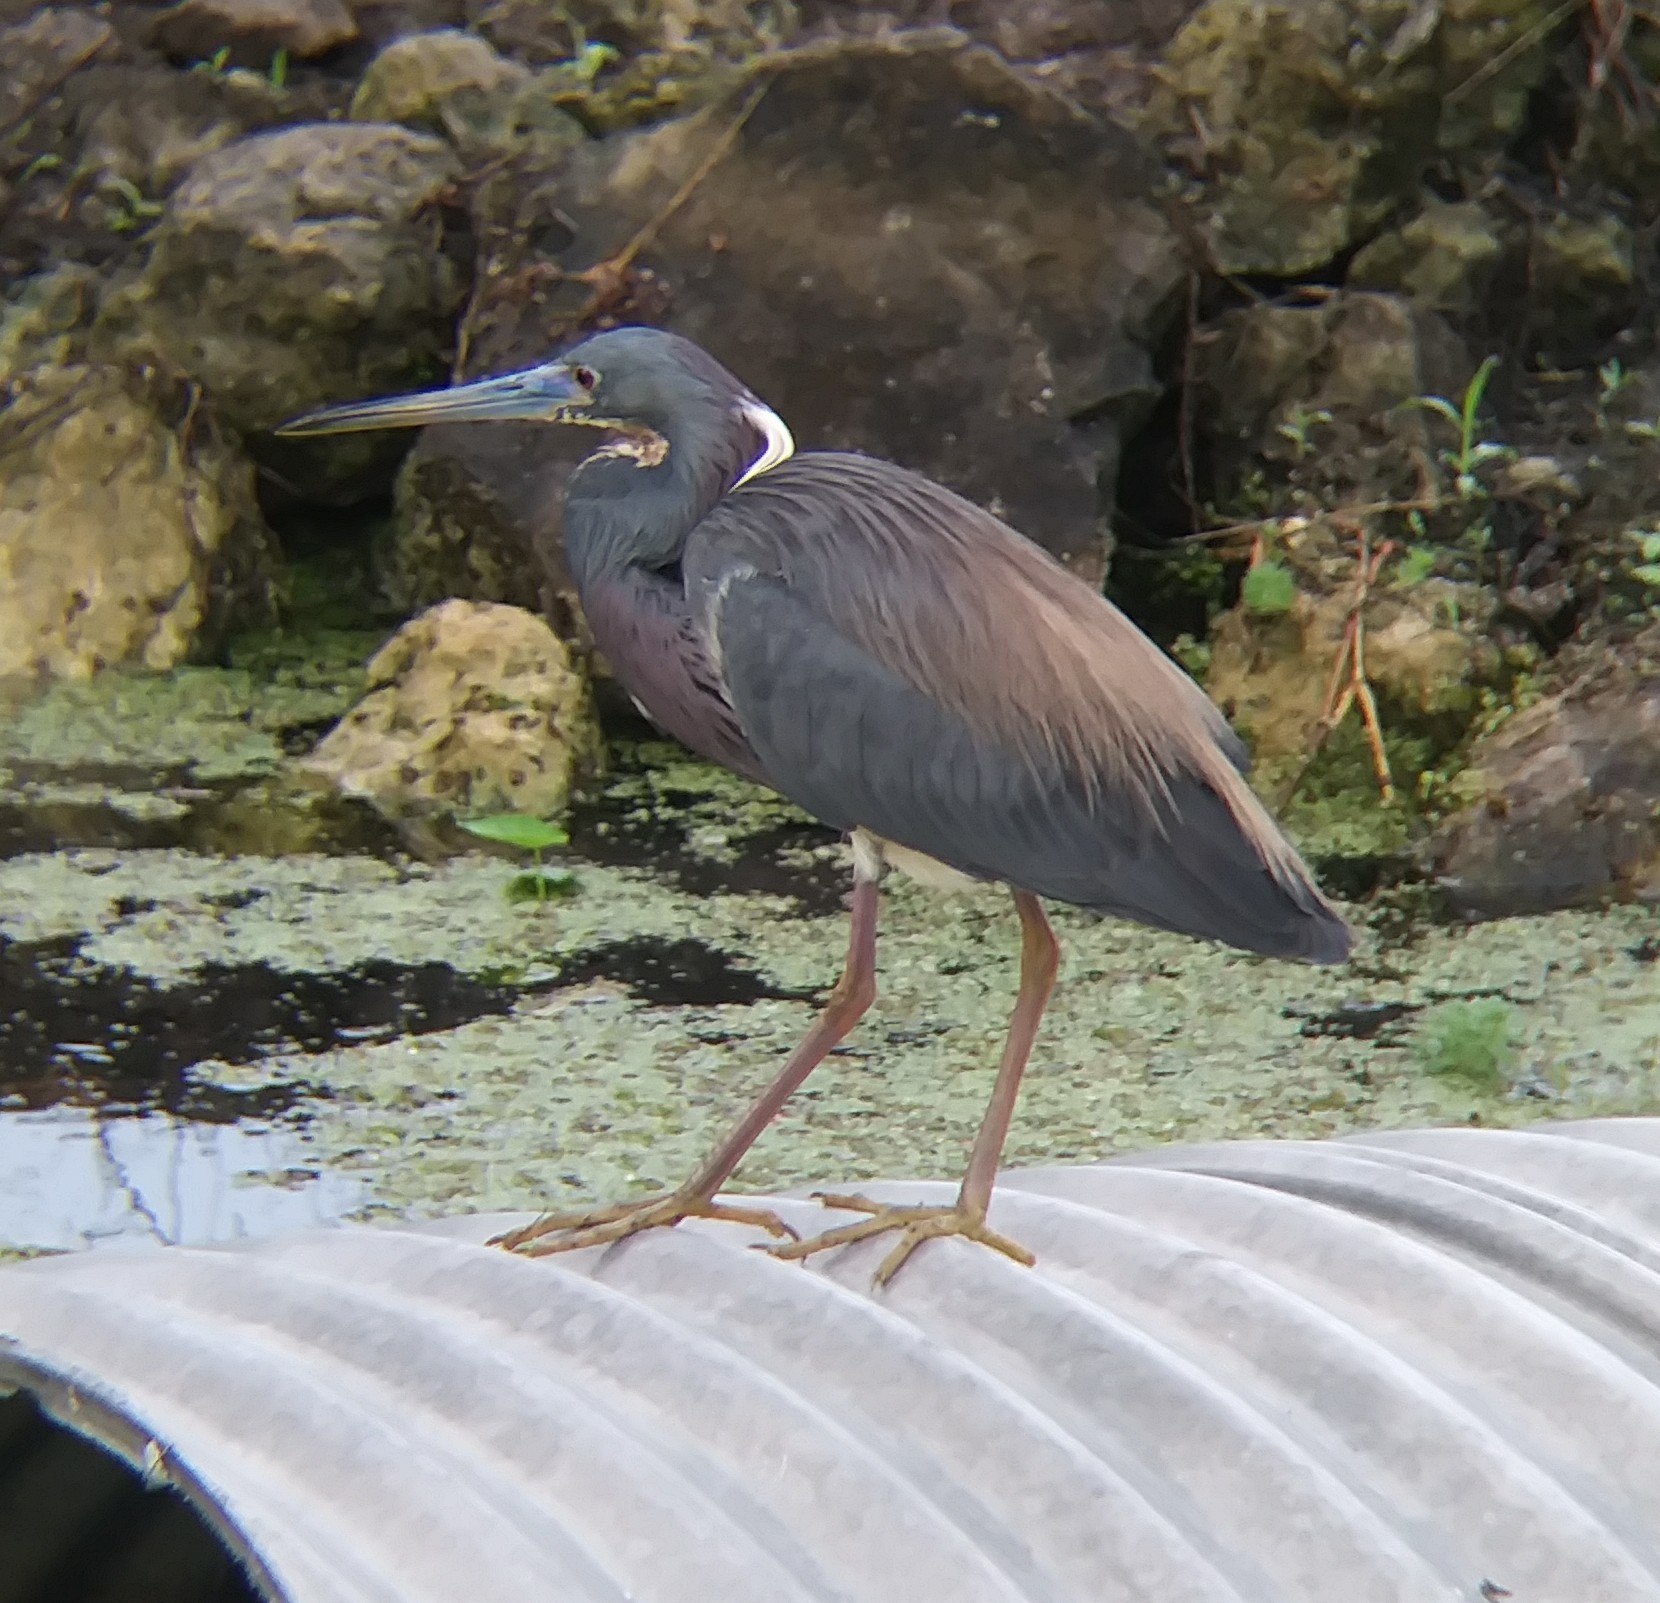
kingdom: Animalia
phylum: Chordata
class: Aves
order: Pelecaniformes
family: Ardeidae
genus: Egretta
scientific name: Egretta tricolor
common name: Tricolored heron
